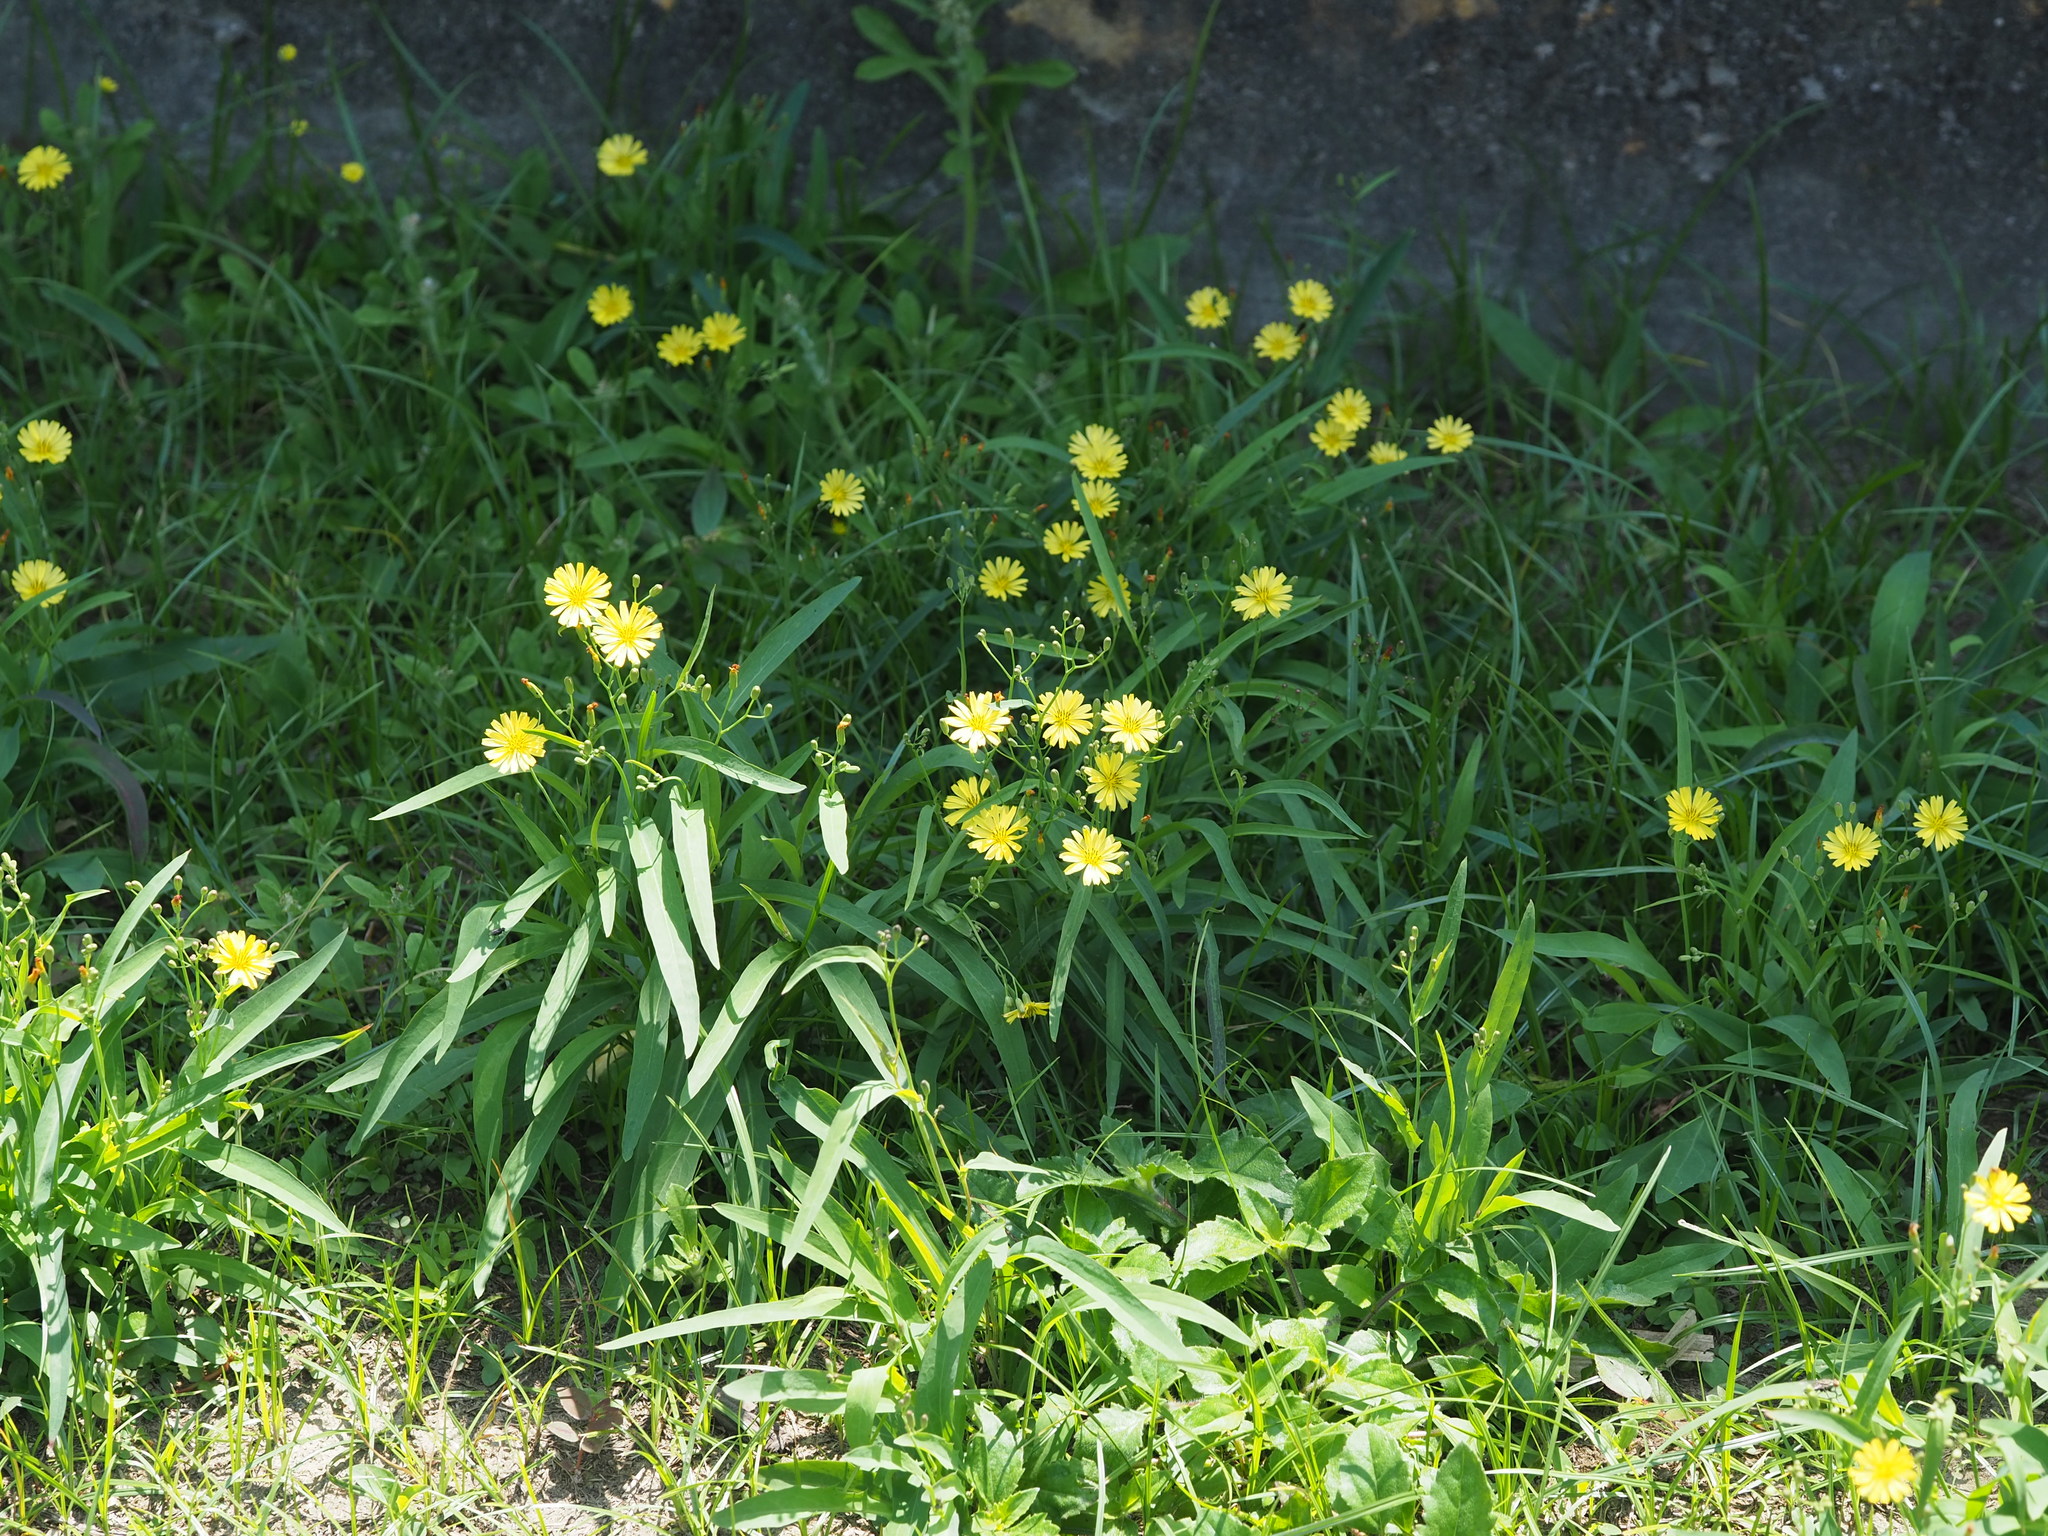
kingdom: Plantae
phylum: Tracheophyta
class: Magnoliopsida
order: Asterales
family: Asteraceae
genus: Ixeris
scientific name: Ixeris chinensis
